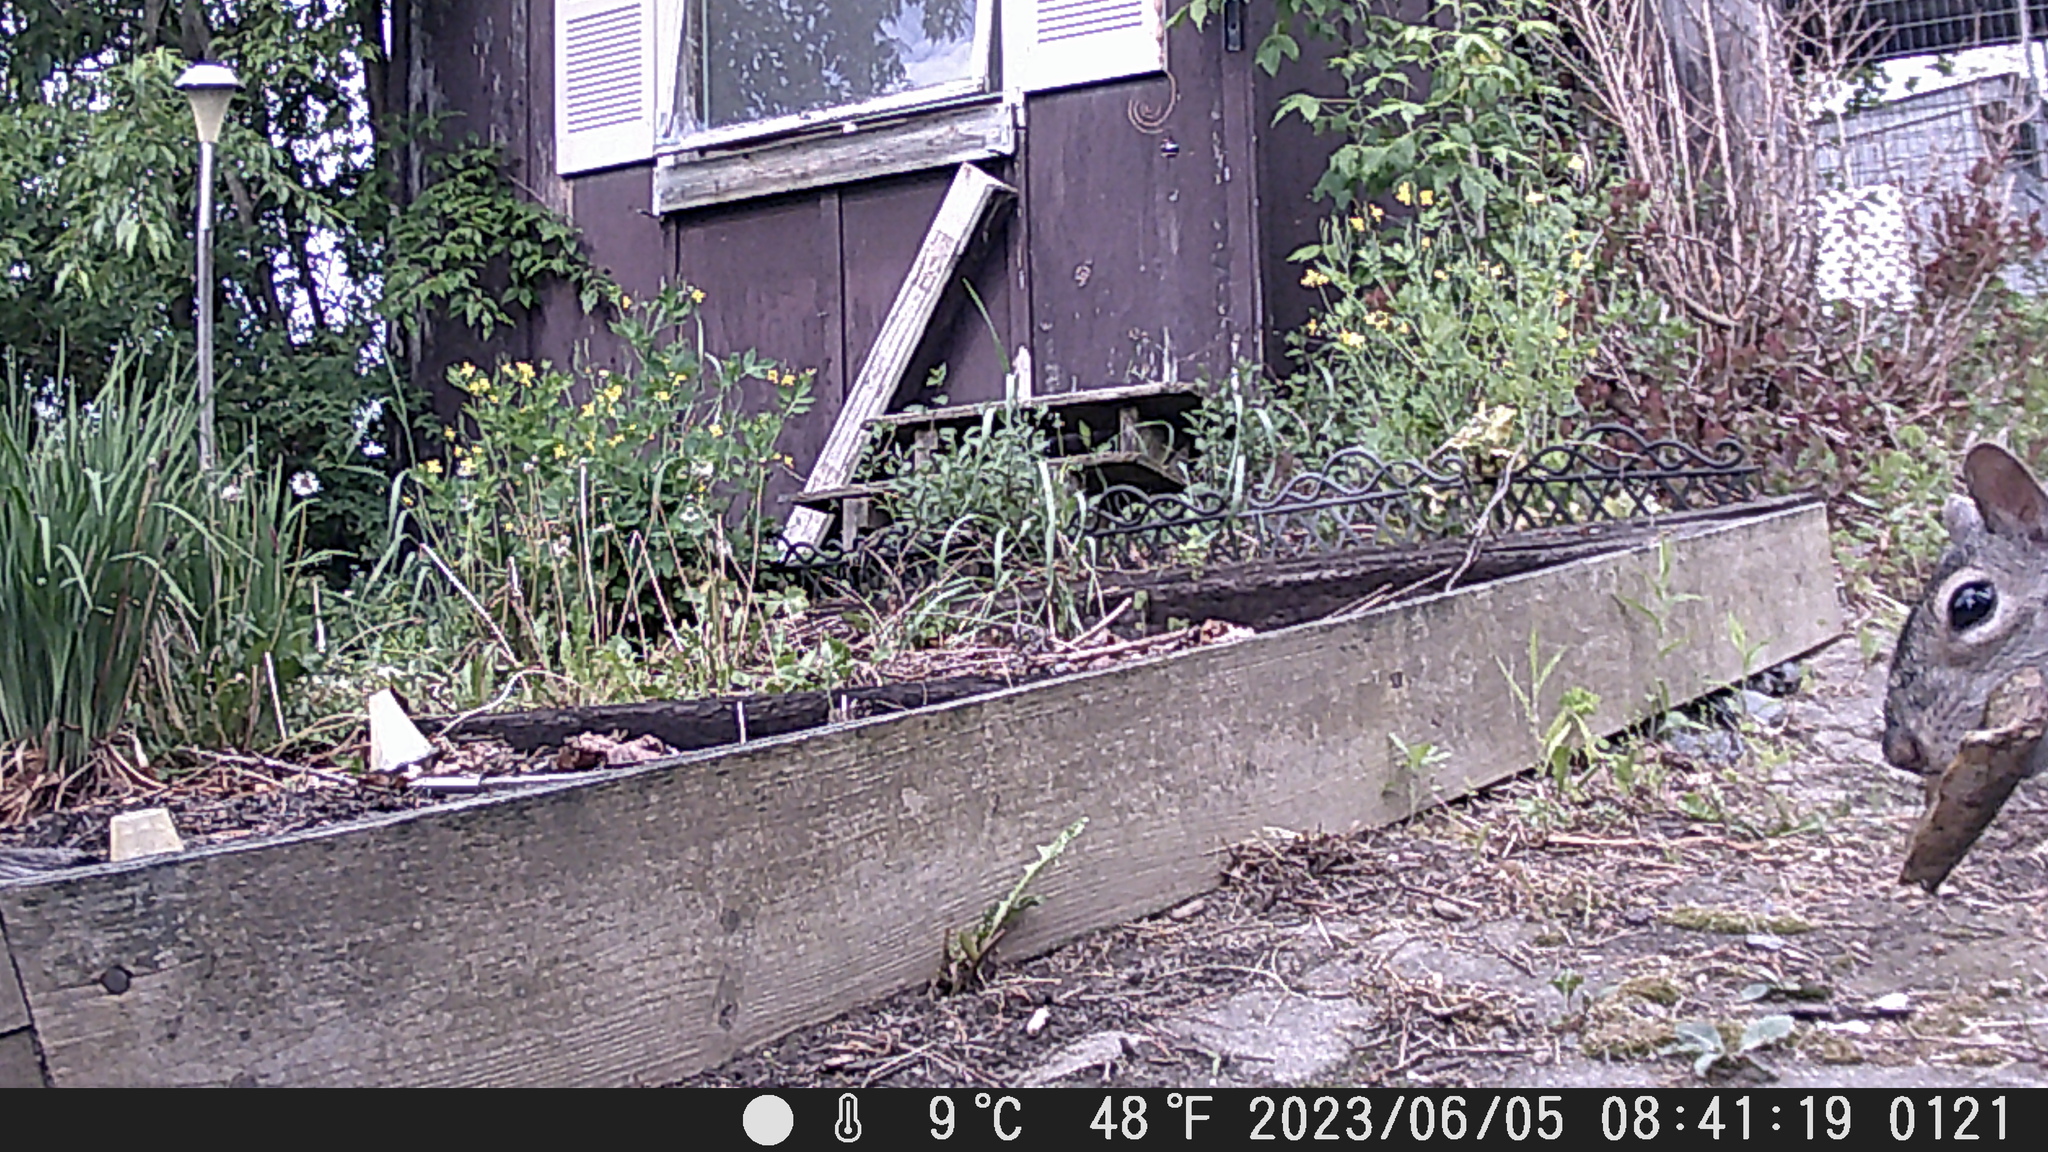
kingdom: Animalia
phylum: Chordata
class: Mammalia
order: Rodentia
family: Sciuridae
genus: Sciurus
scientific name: Sciurus carolinensis
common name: Eastern gray squirrel
